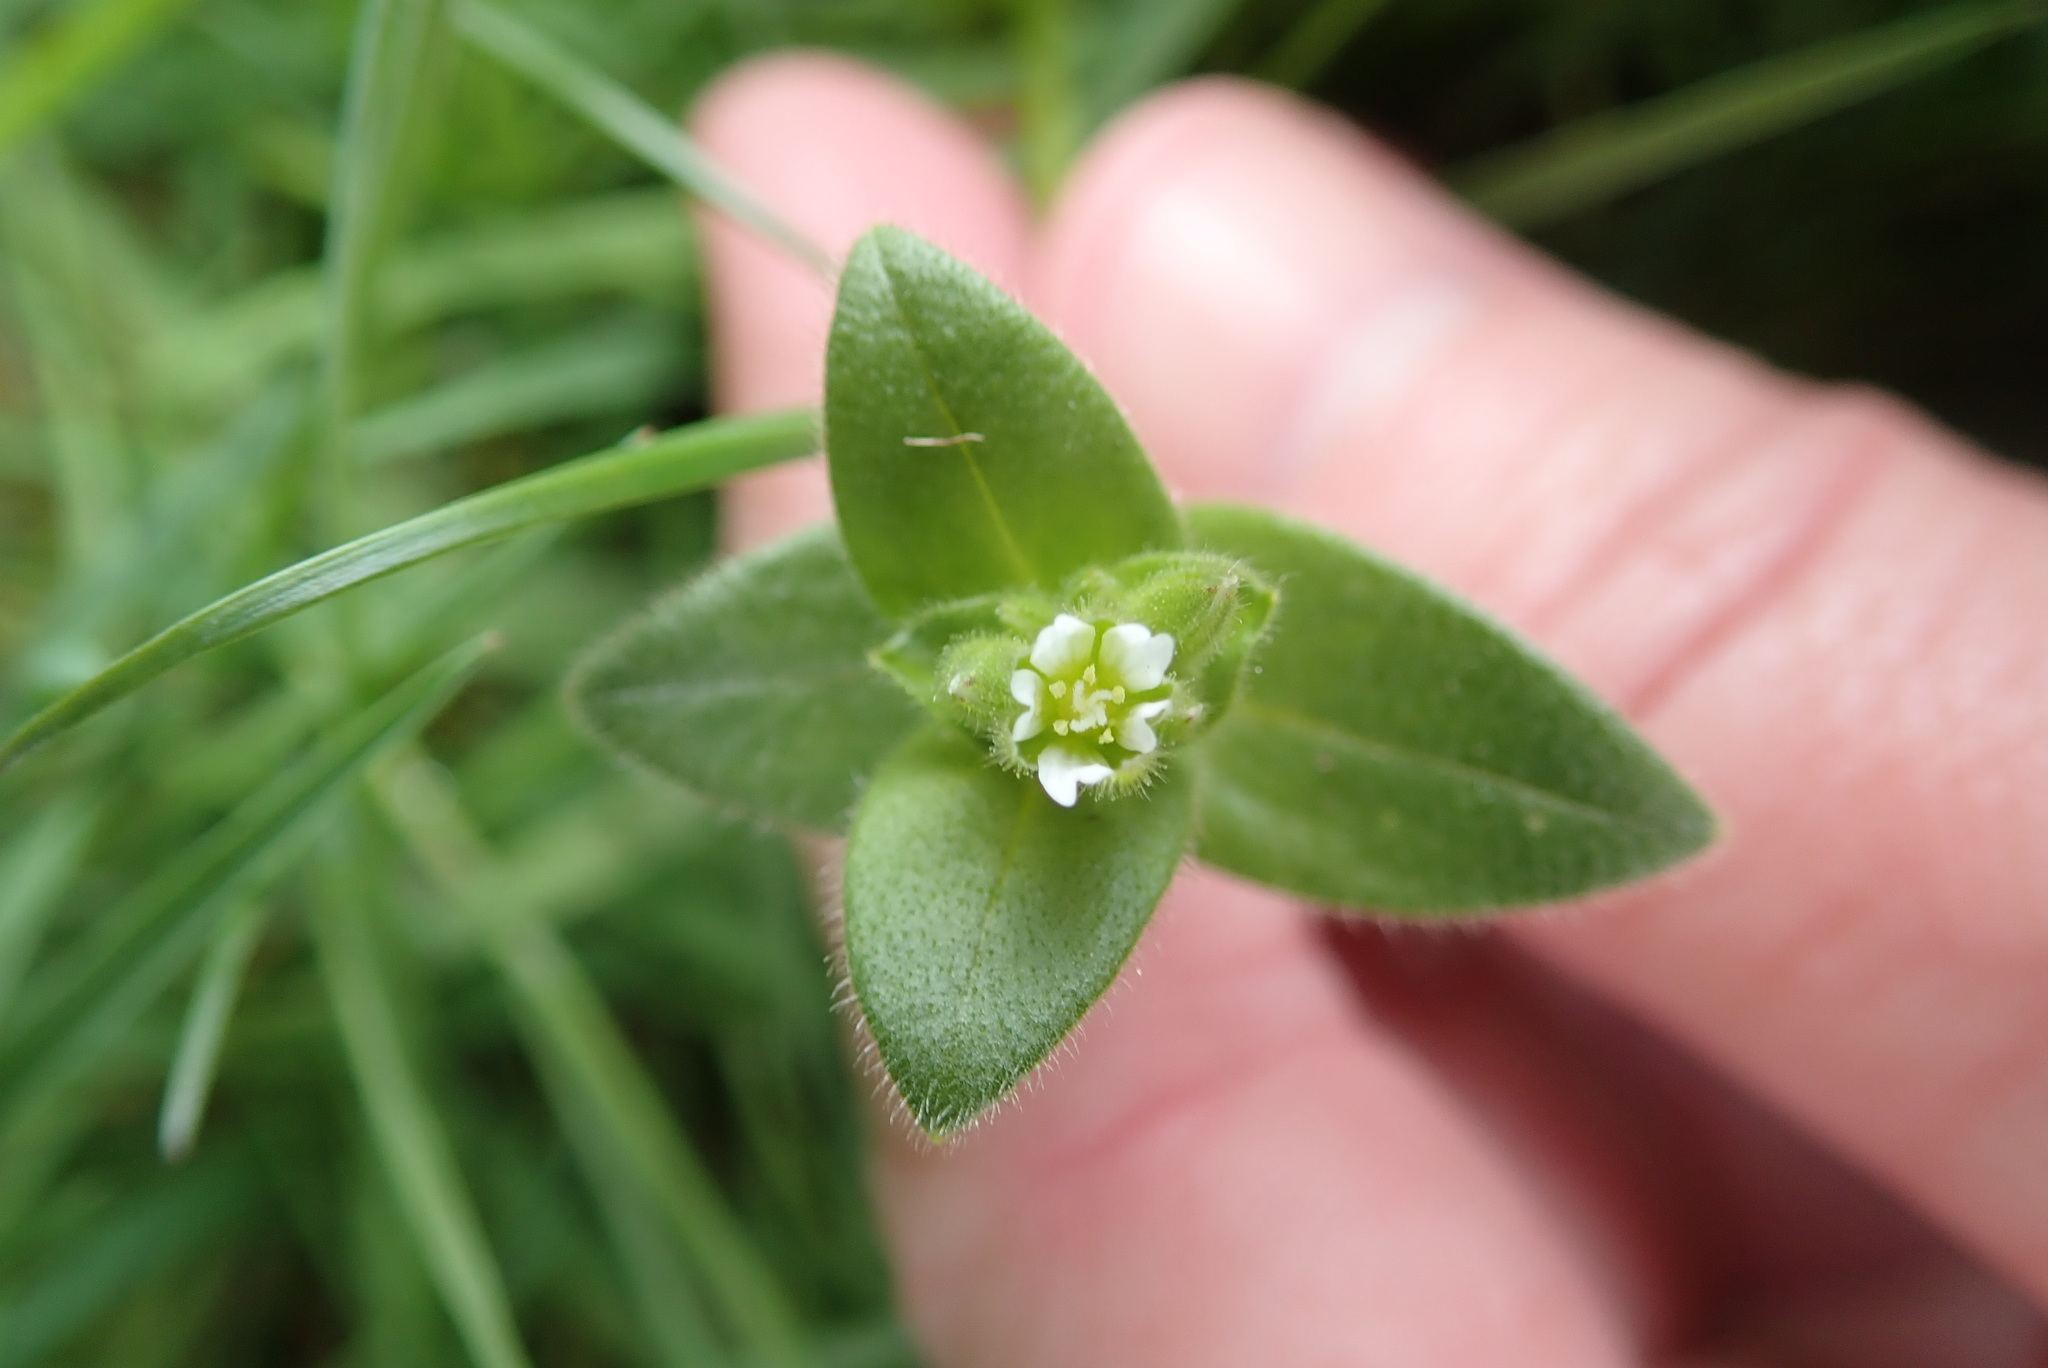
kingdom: Plantae
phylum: Tracheophyta
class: Magnoliopsida
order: Caryophyllales
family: Caryophyllaceae
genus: Stellaria
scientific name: Stellaria media
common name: Common chickweed
